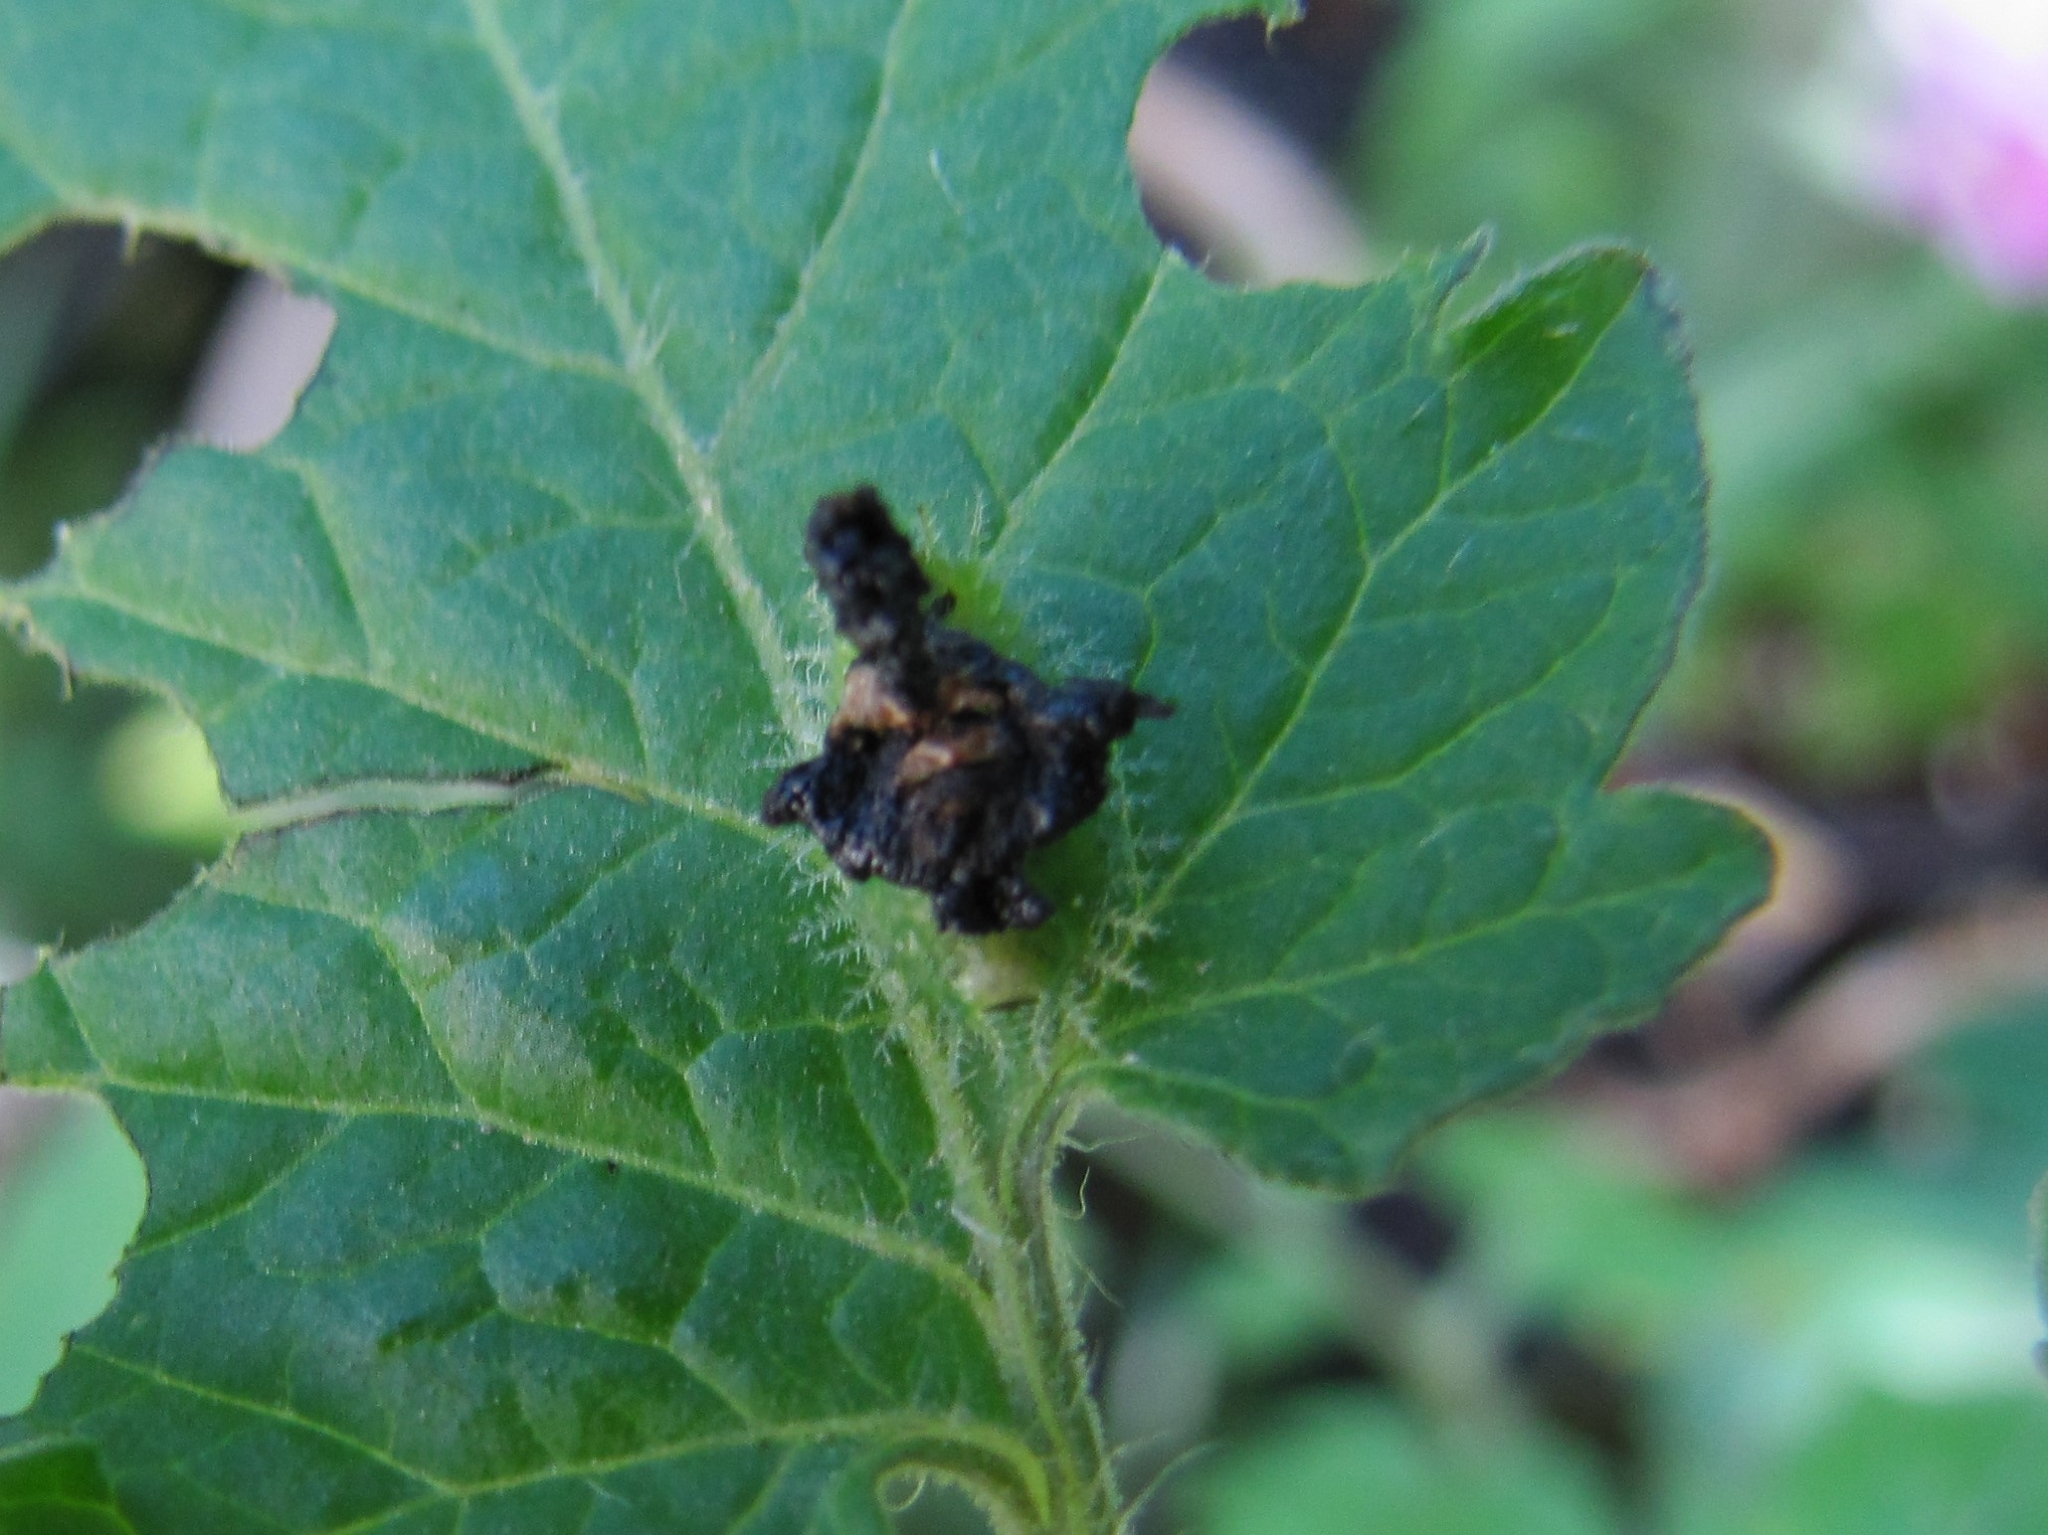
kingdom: Animalia
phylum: Arthropoda
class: Insecta
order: Coleoptera
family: Chrysomelidae
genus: Helocassis
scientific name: Helocassis clavata
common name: Clavate tortoise beetle
